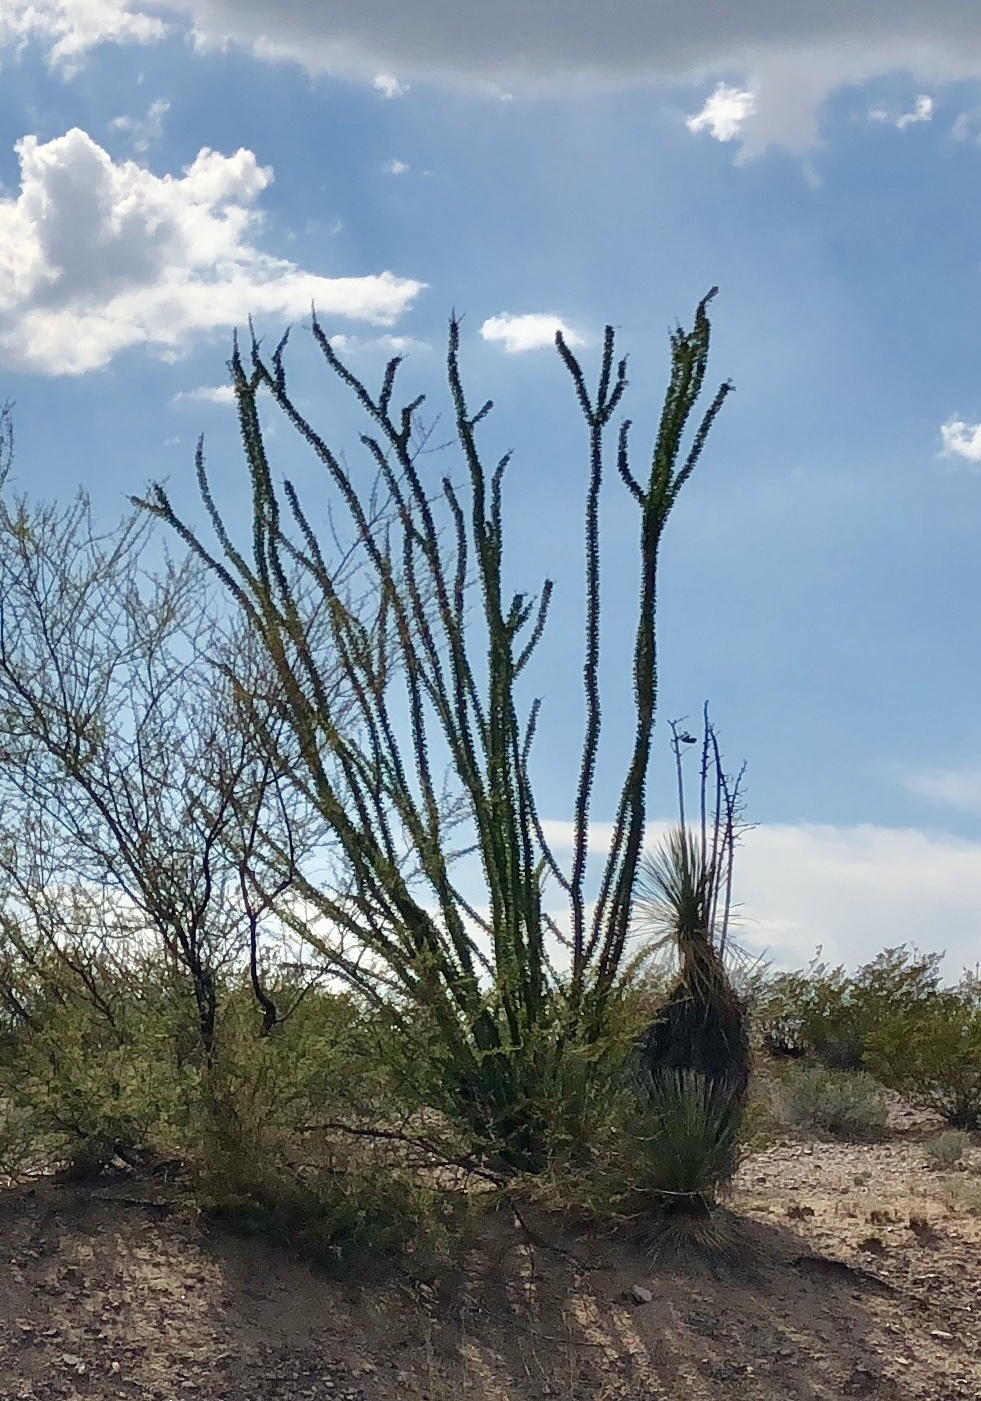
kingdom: Plantae
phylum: Tracheophyta
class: Magnoliopsida
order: Ericales
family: Fouquieriaceae
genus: Fouquieria
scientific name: Fouquieria splendens
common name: Vine-cactus
